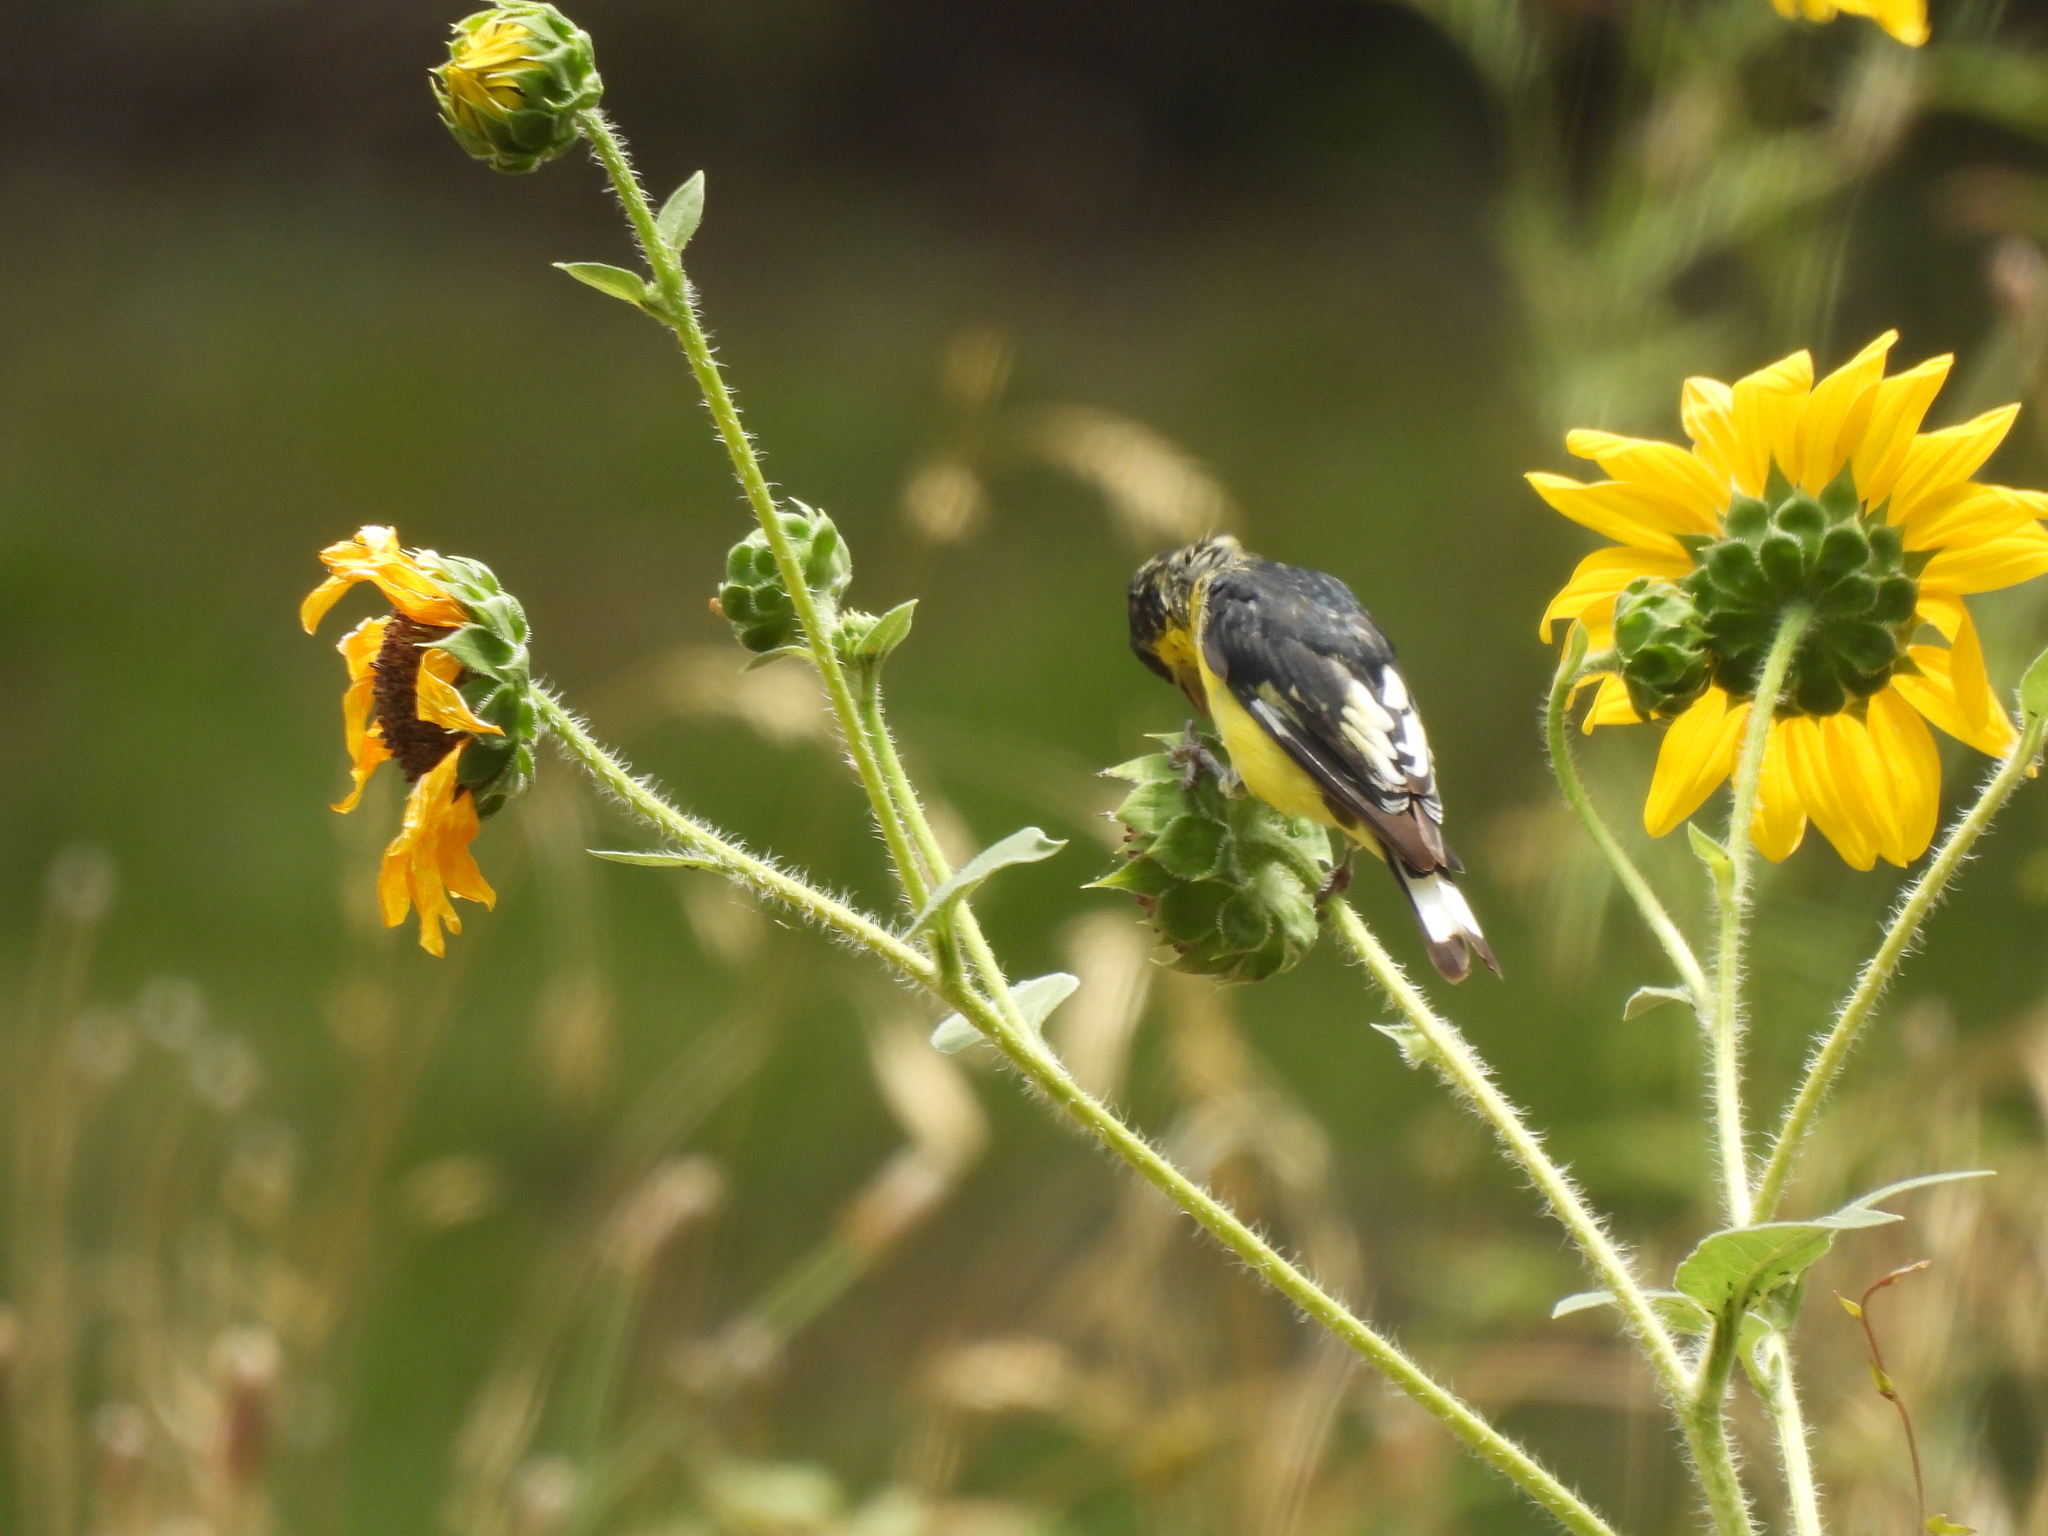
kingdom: Animalia
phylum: Chordata
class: Aves
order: Passeriformes
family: Fringillidae
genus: Spinus
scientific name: Spinus psaltria
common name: Lesser goldfinch
